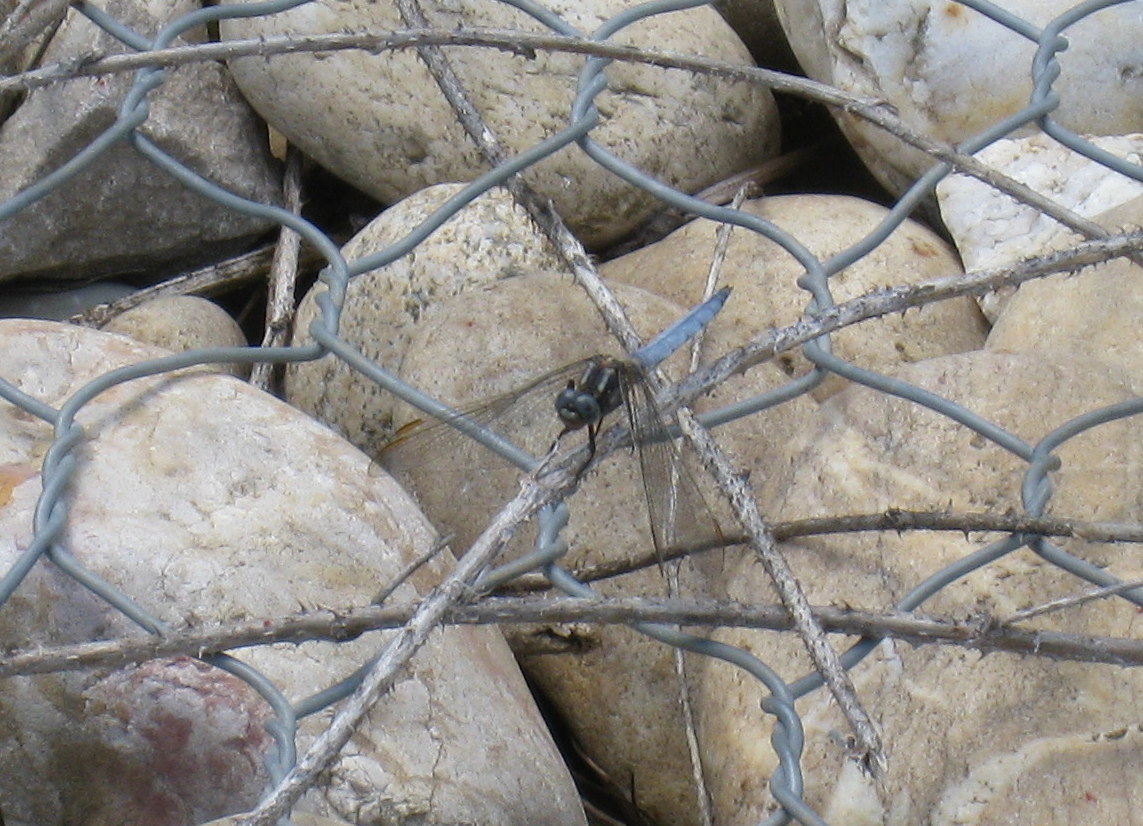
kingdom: Animalia
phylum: Arthropoda
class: Insecta
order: Odonata
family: Libellulidae
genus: Orthetrum
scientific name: Orthetrum coerulescens
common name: Keeled skimmer
